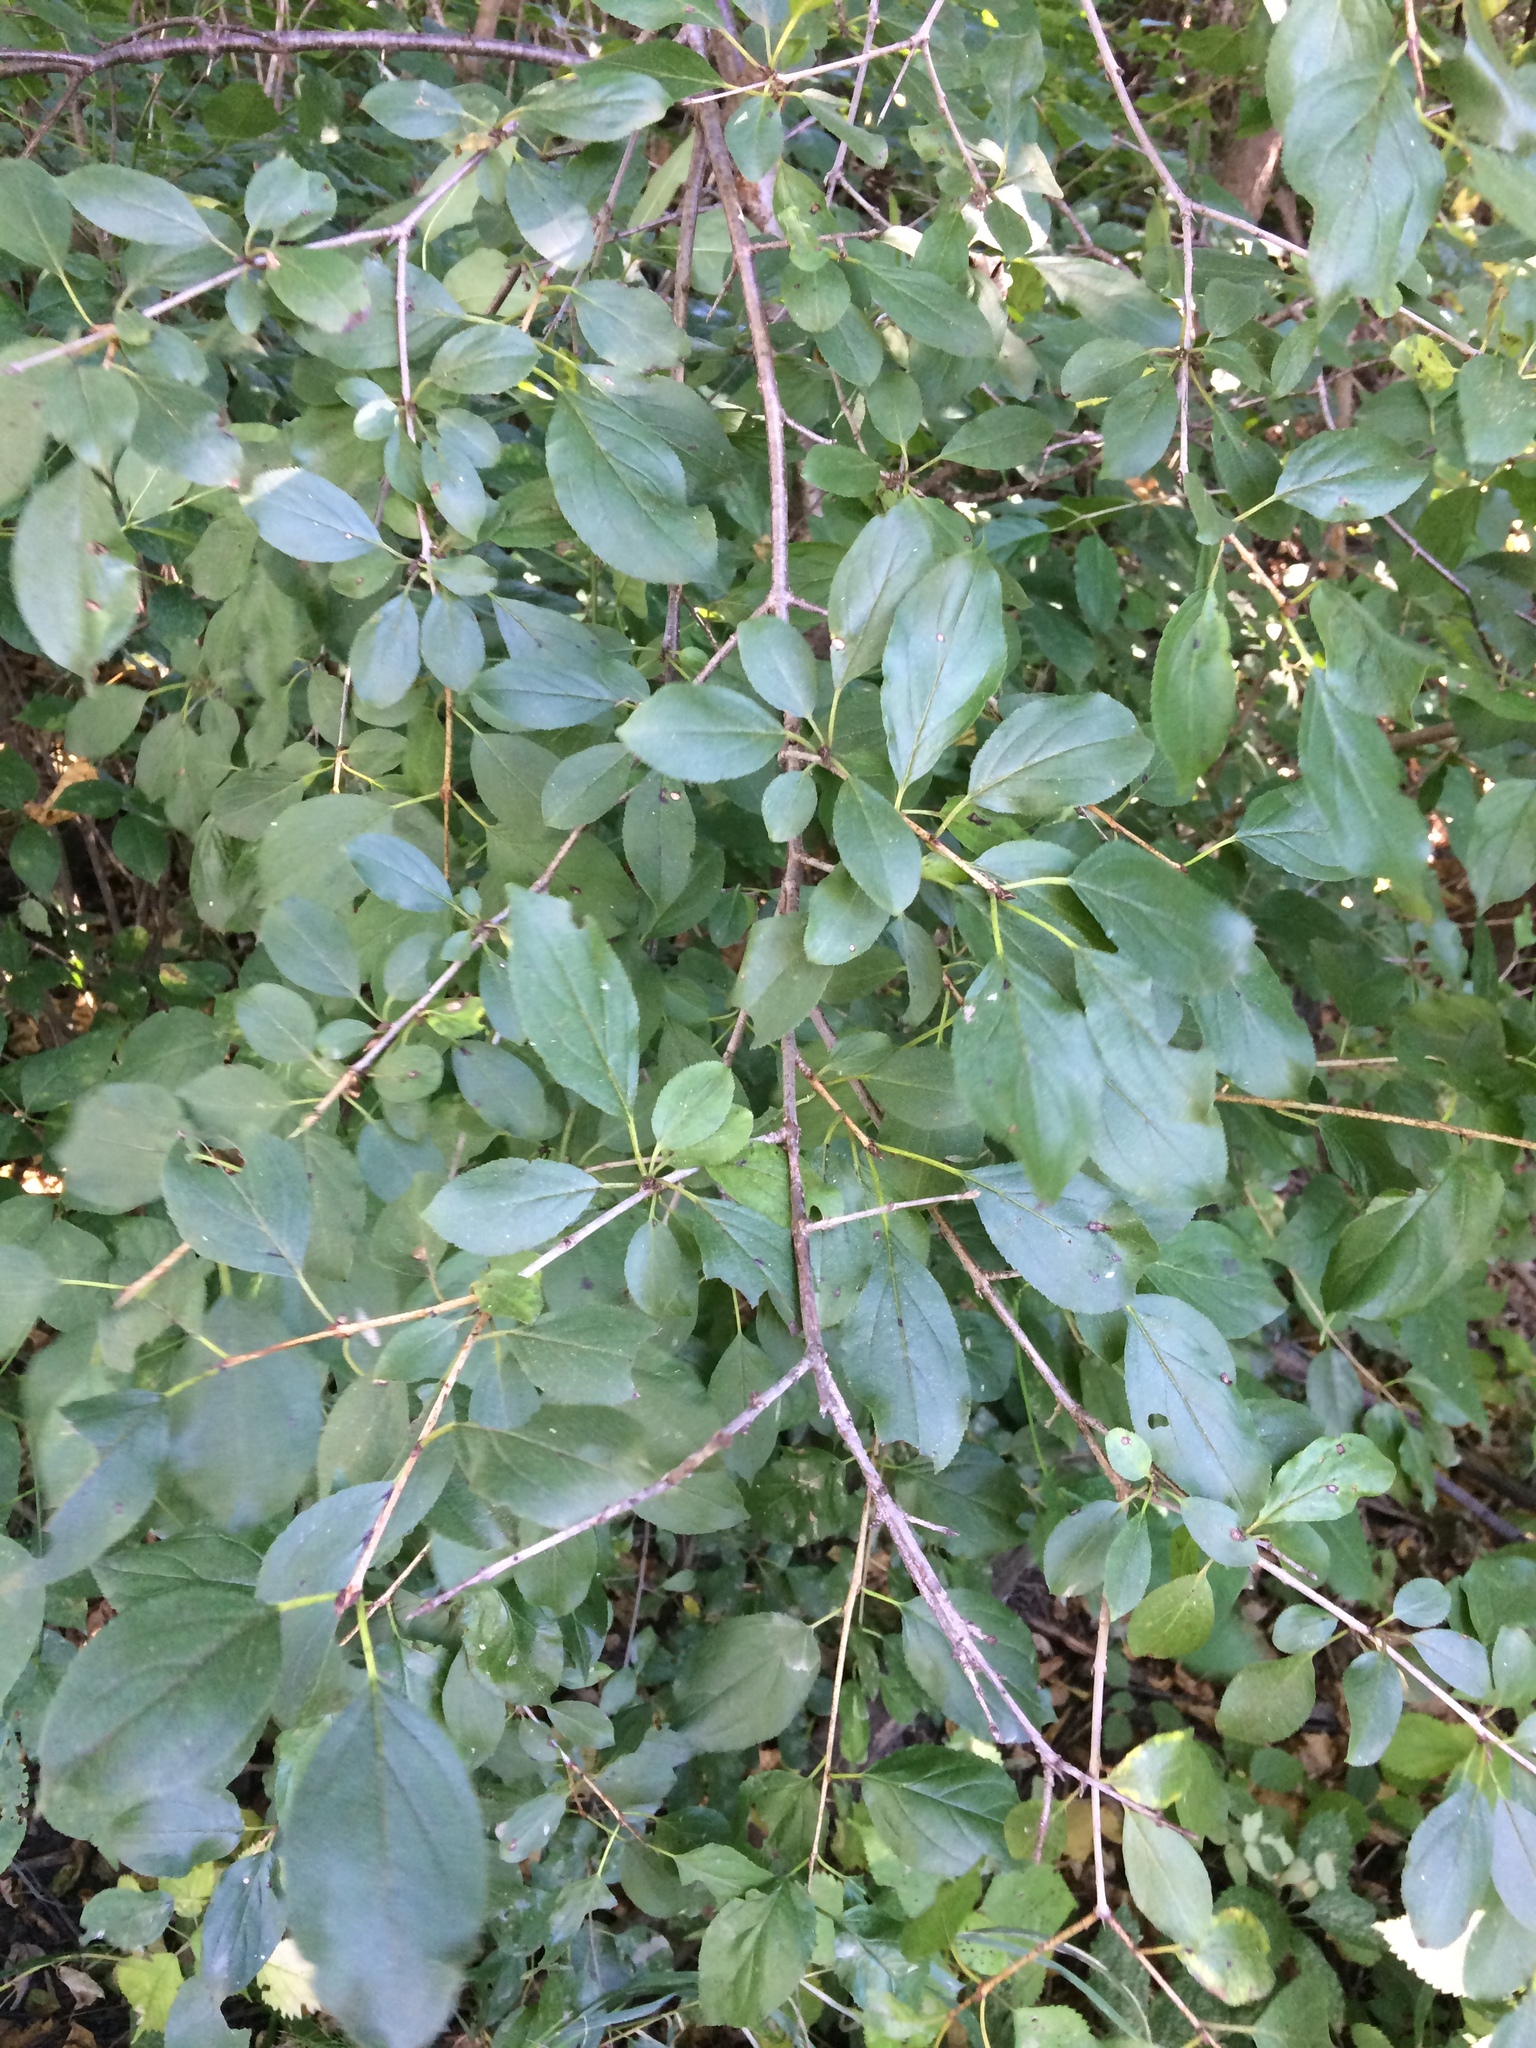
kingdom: Plantae
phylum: Tracheophyta
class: Magnoliopsida
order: Rosales
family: Rhamnaceae
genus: Rhamnus
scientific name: Rhamnus cathartica
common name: Common buckthorn
